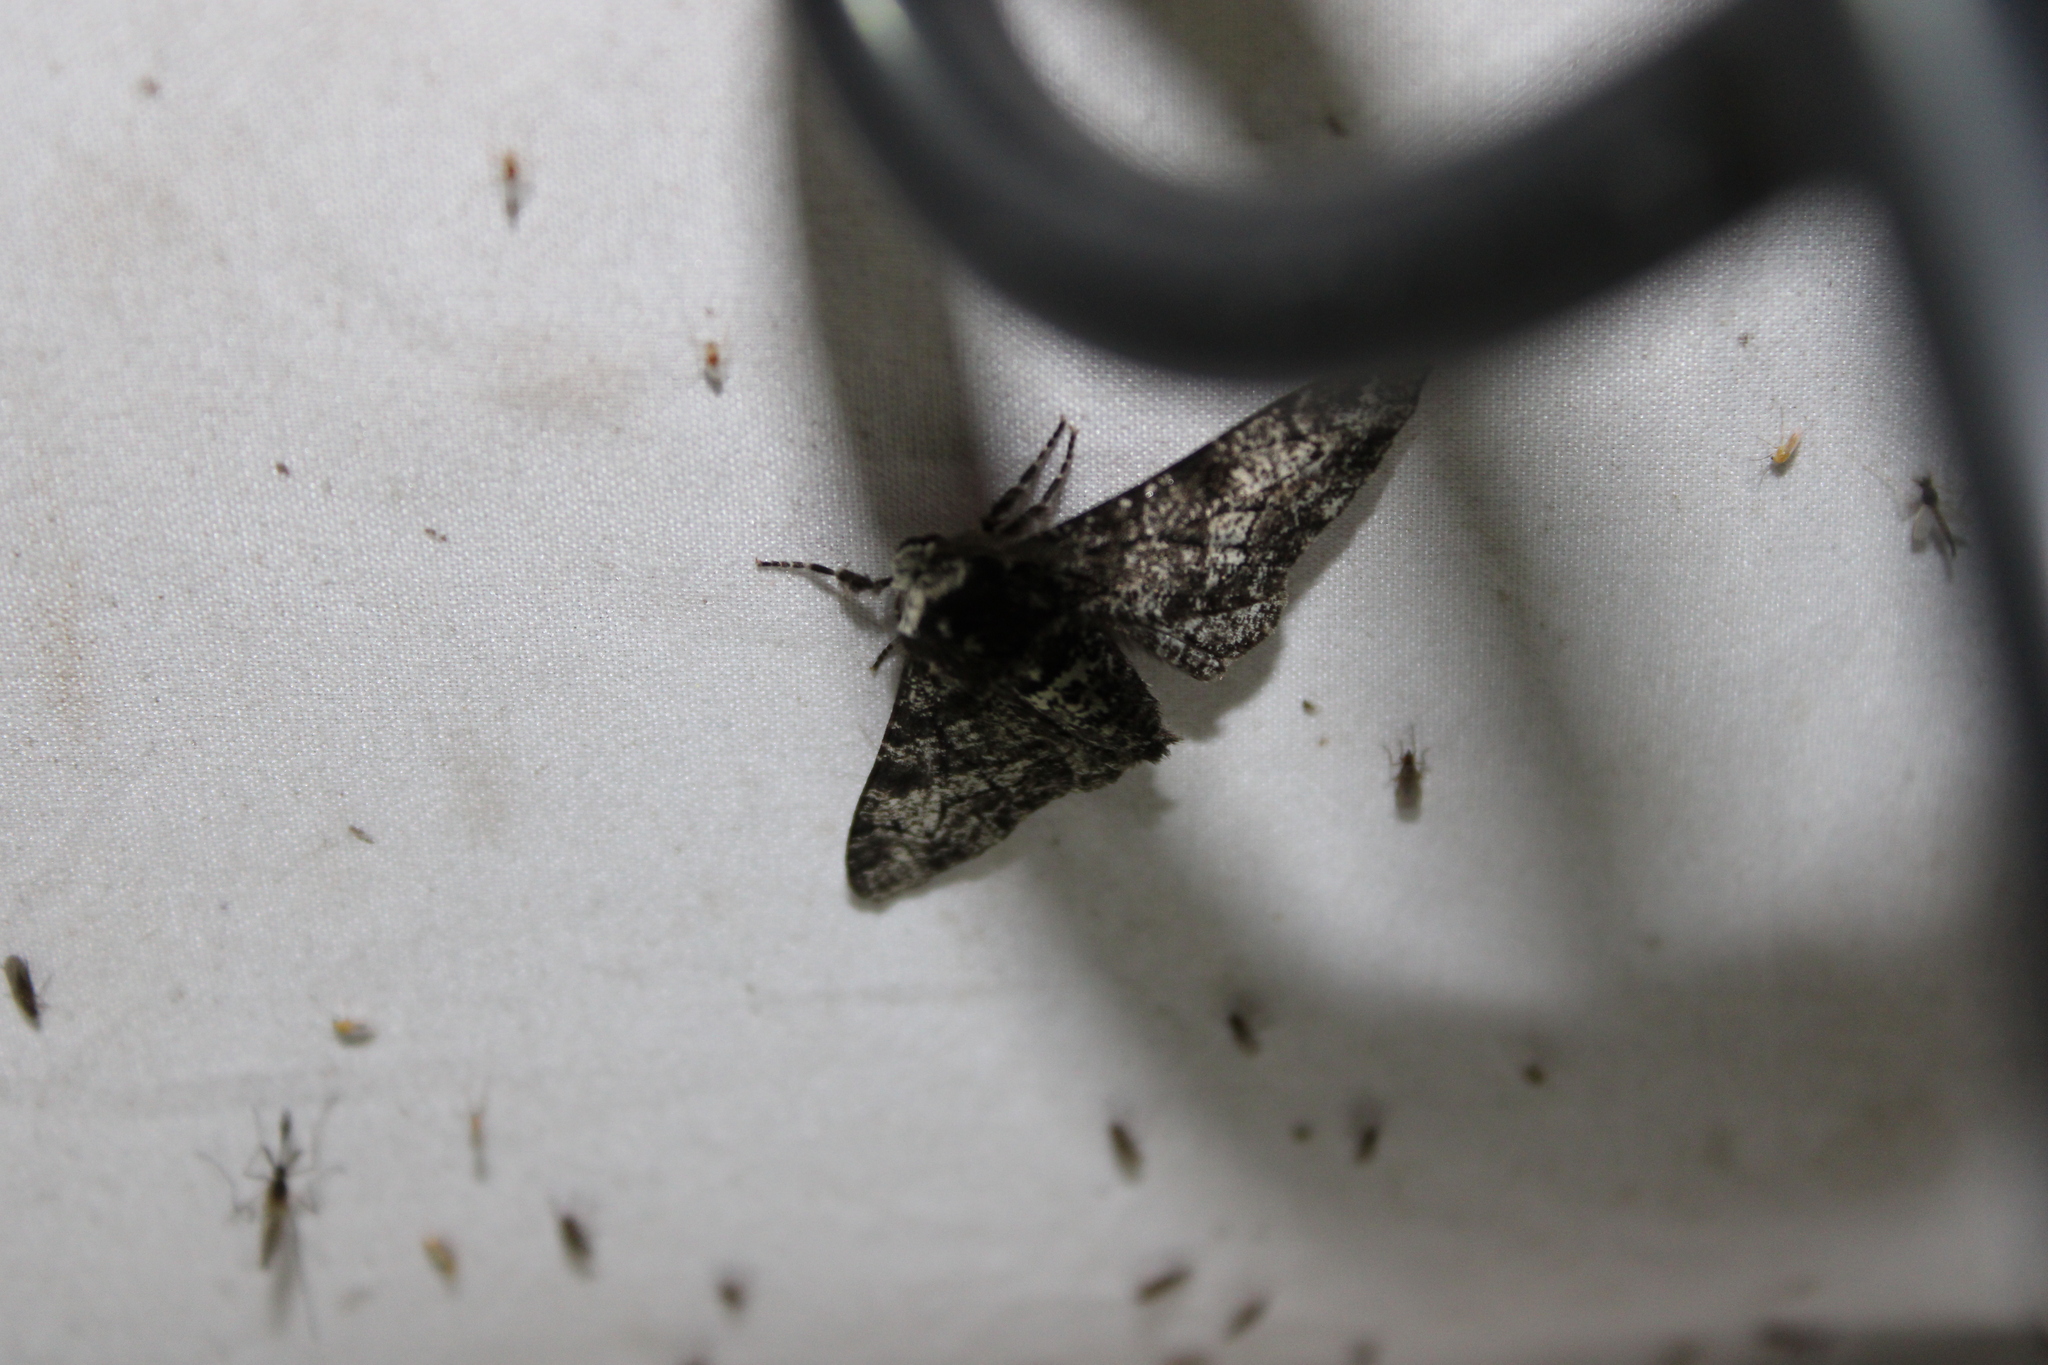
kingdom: Animalia
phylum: Arthropoda
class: Insecta
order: Lepidoptera
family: Geometridae
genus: Biston
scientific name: Biston betularia
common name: Peppered moth
